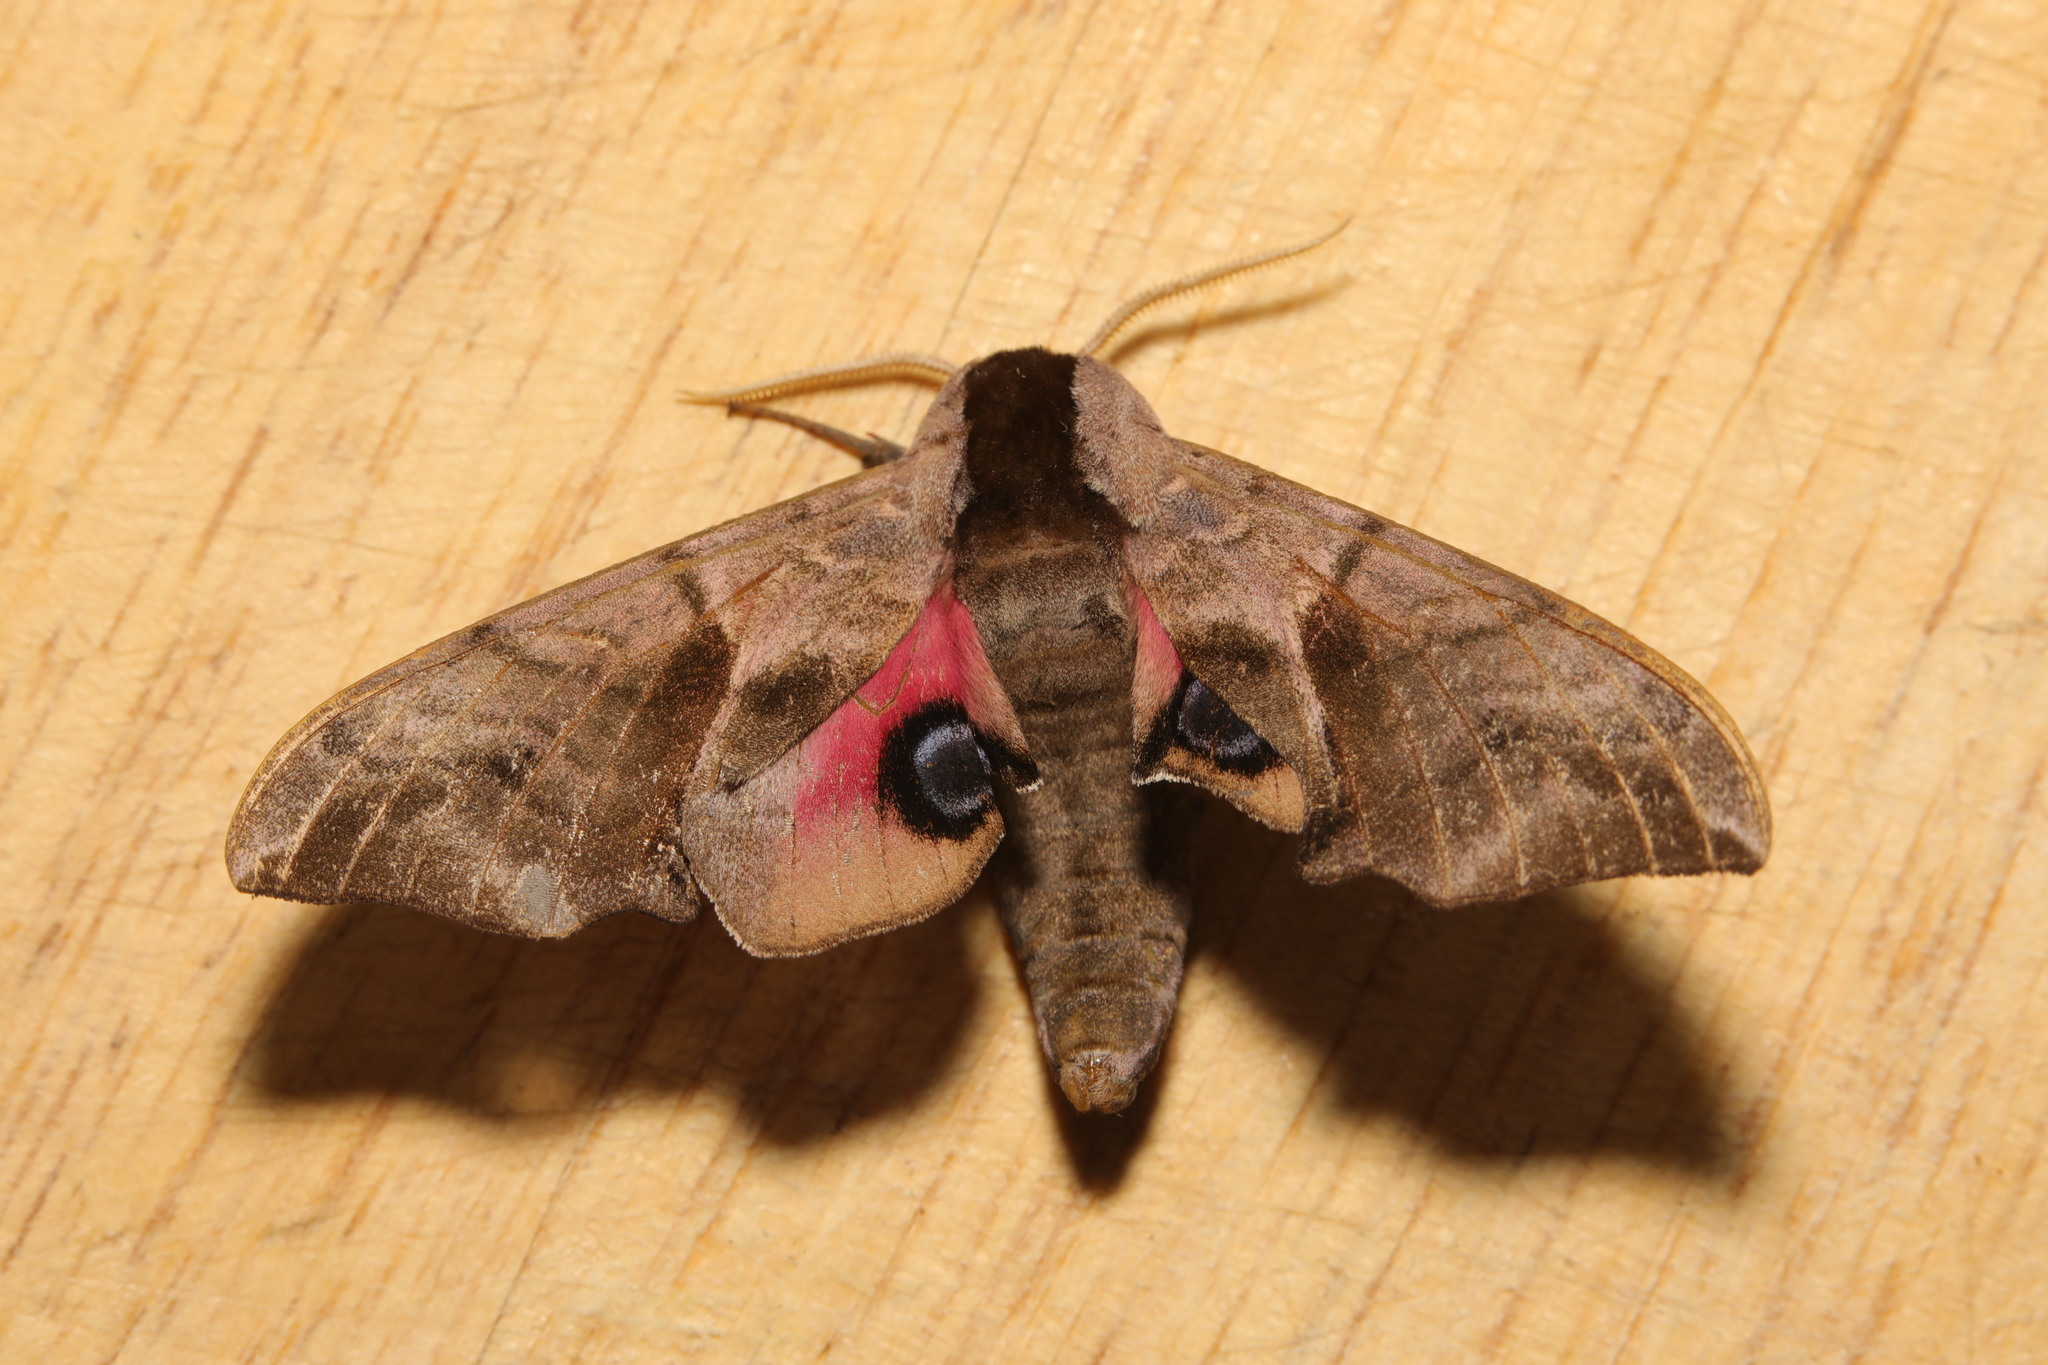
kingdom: Animalia
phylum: Arthropoda
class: Insecta
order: Lepidoptera
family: Sphingidae
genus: Smerinthus
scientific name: Smerinthus ocellata
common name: Eyed hawk-moth
